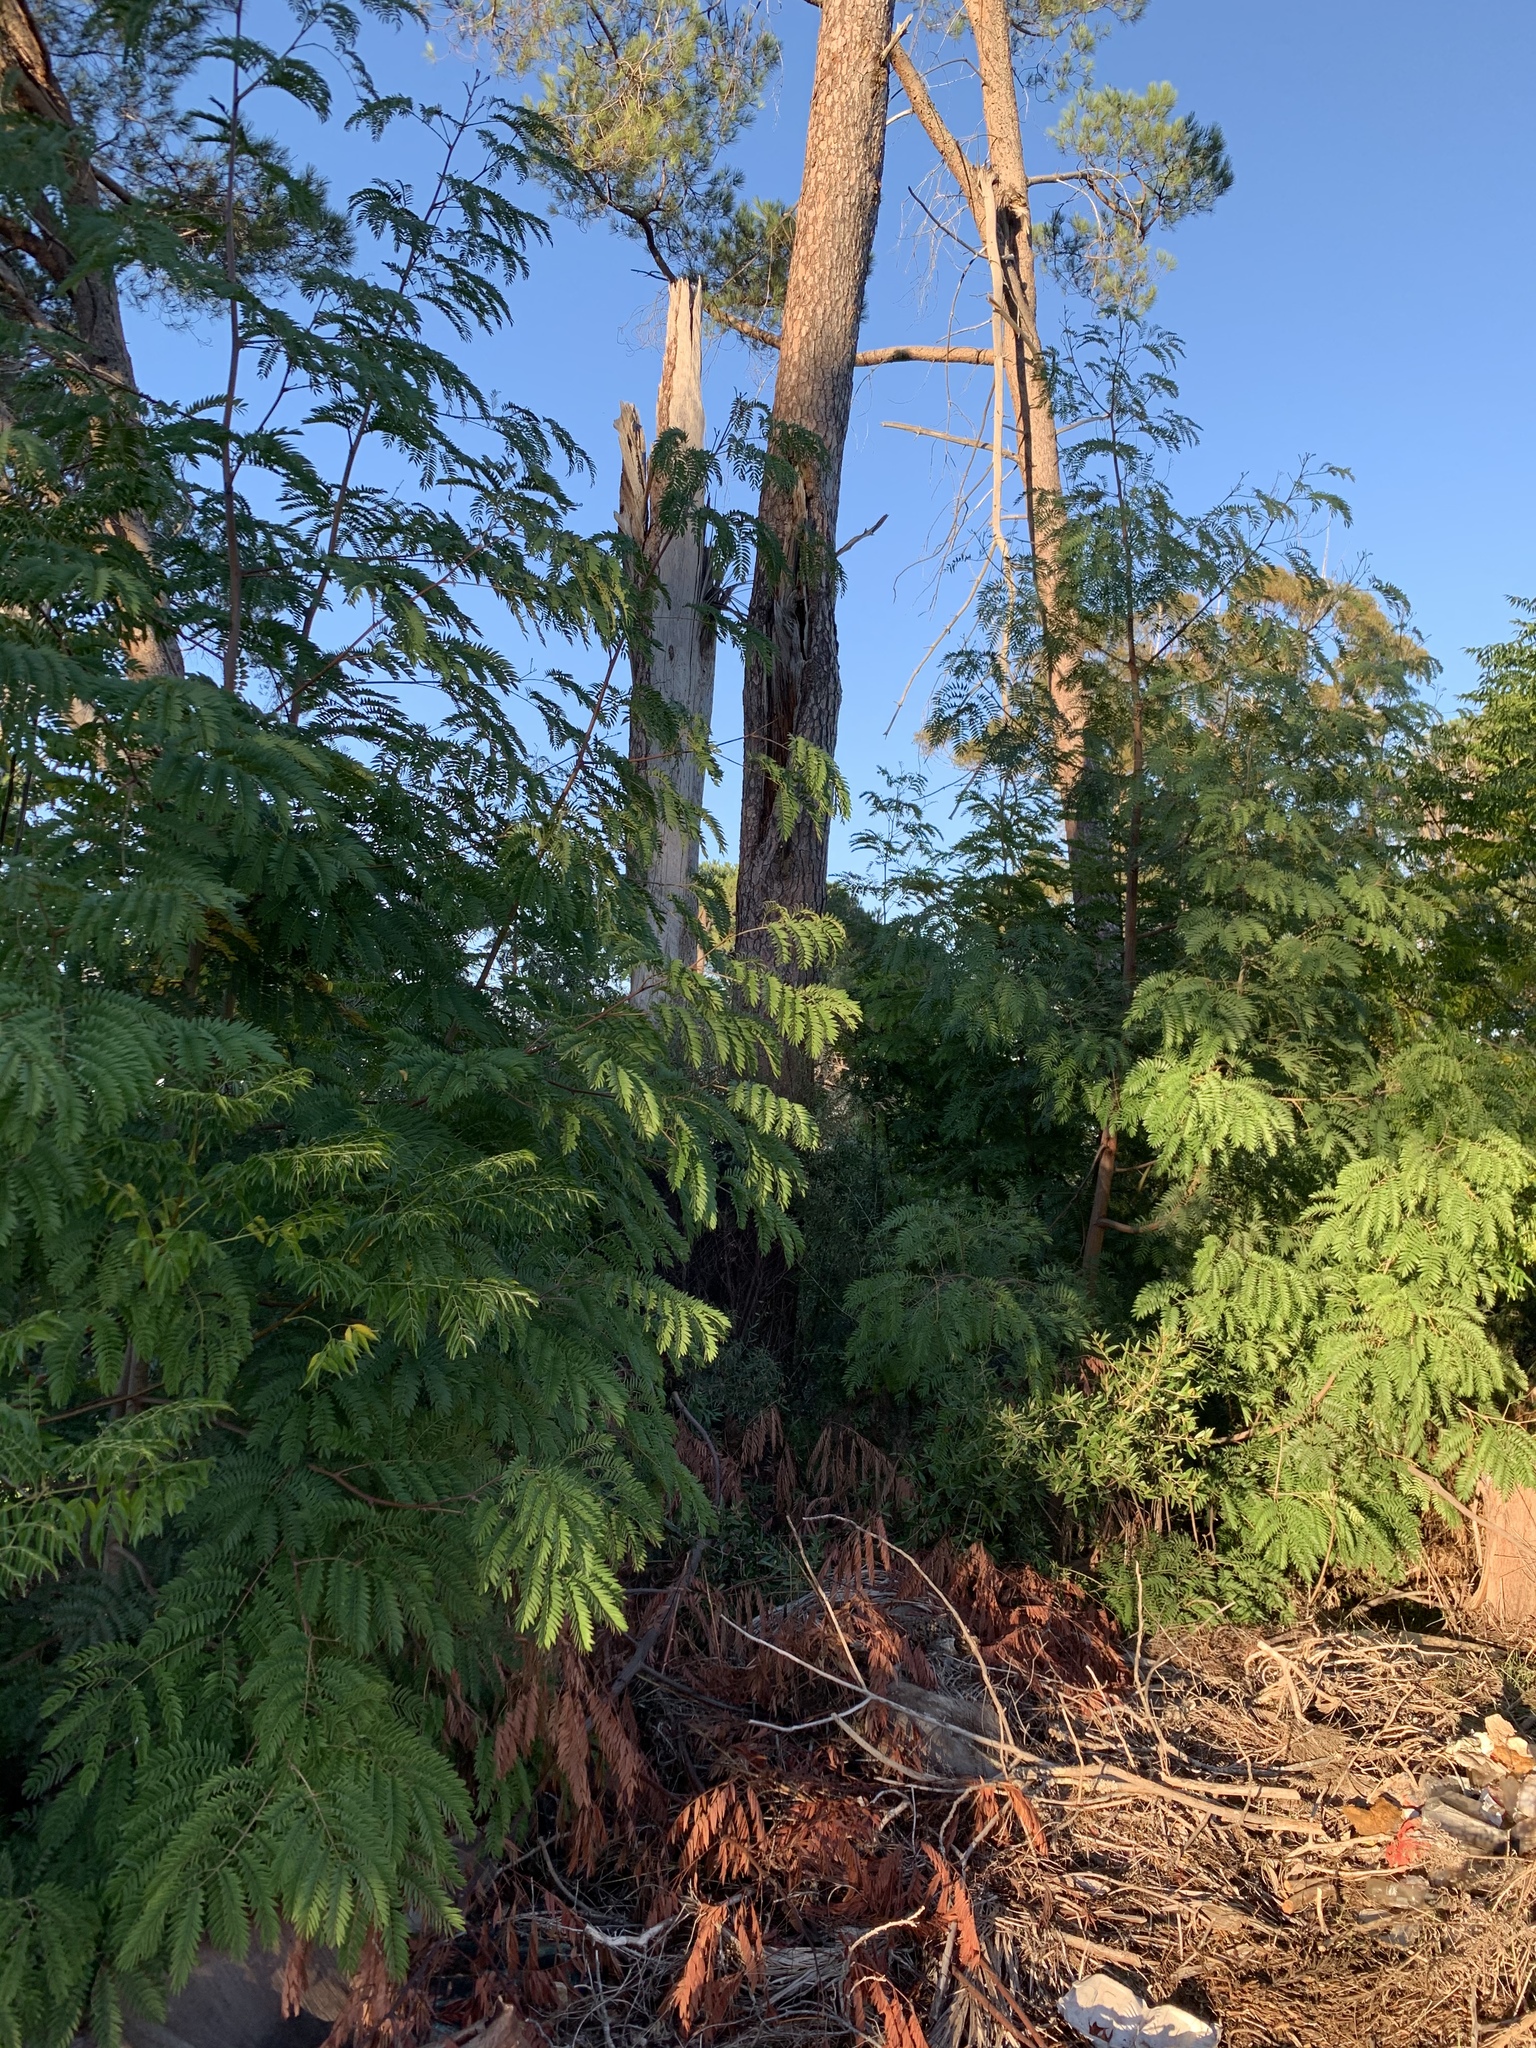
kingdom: Plantae
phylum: Tracheophyta
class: Magnoliopsida
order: Fabales
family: Fabaceae
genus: Acacia
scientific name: Acacia elata
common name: Cedar wattle
